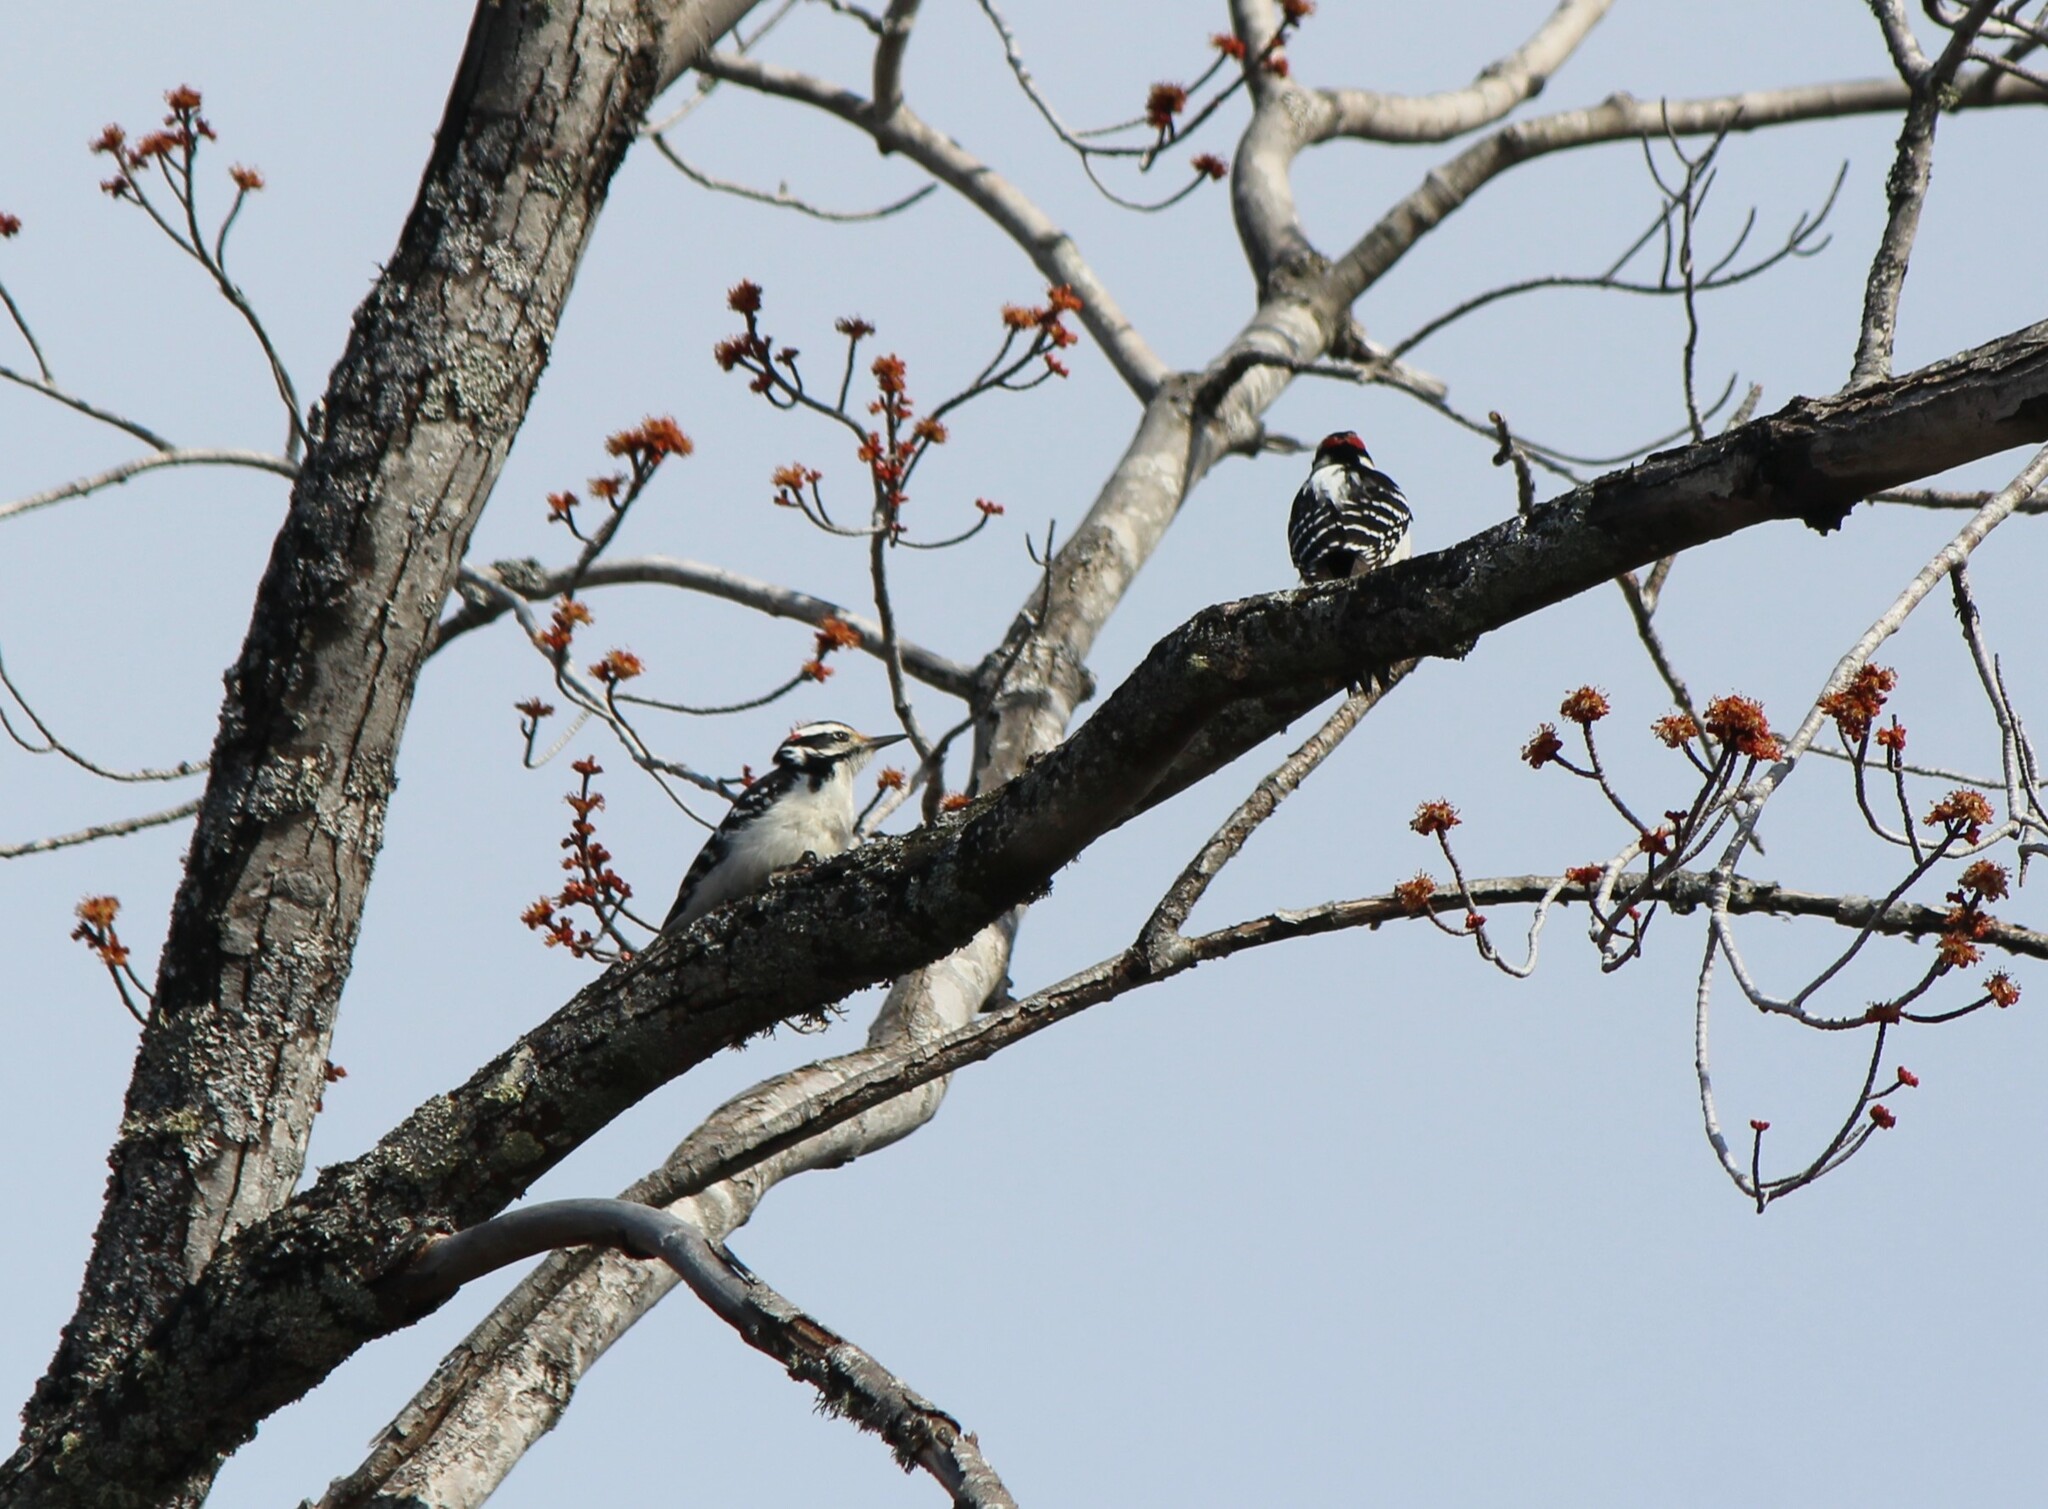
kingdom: Animalia
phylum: Chordata
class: Aves
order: Piciformes
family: Picidae
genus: Leuconotopicus
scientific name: Leuconotopicus villosus
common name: Hairy woodpecker
